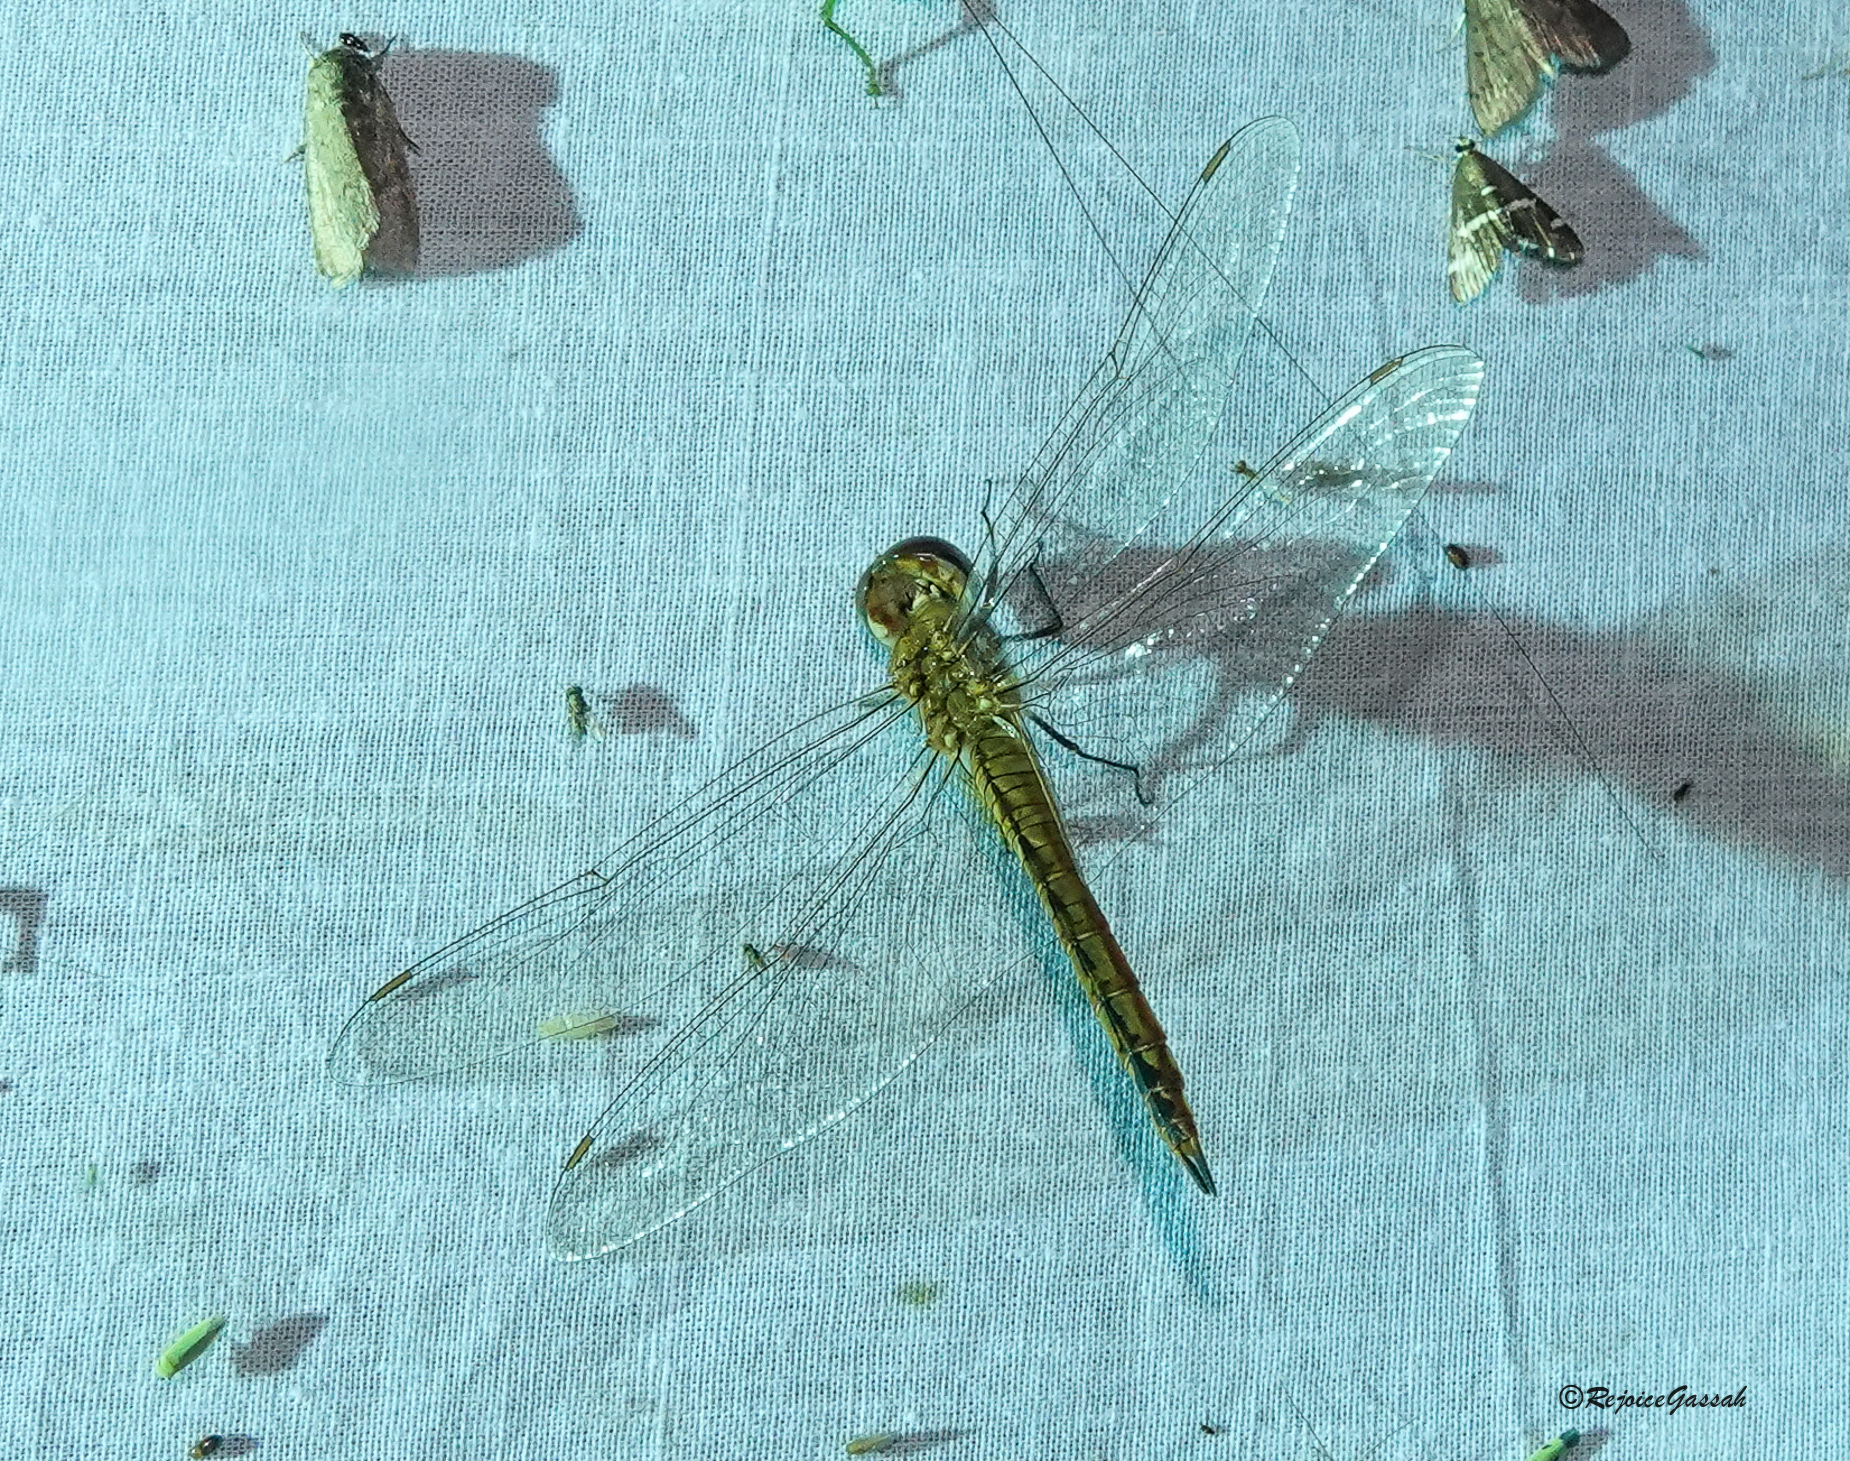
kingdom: Animalia
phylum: Arthropoda
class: Insecta
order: Odonata
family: Libellulidae
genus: Pantala
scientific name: Pantala flavescens
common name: Wandering glider
